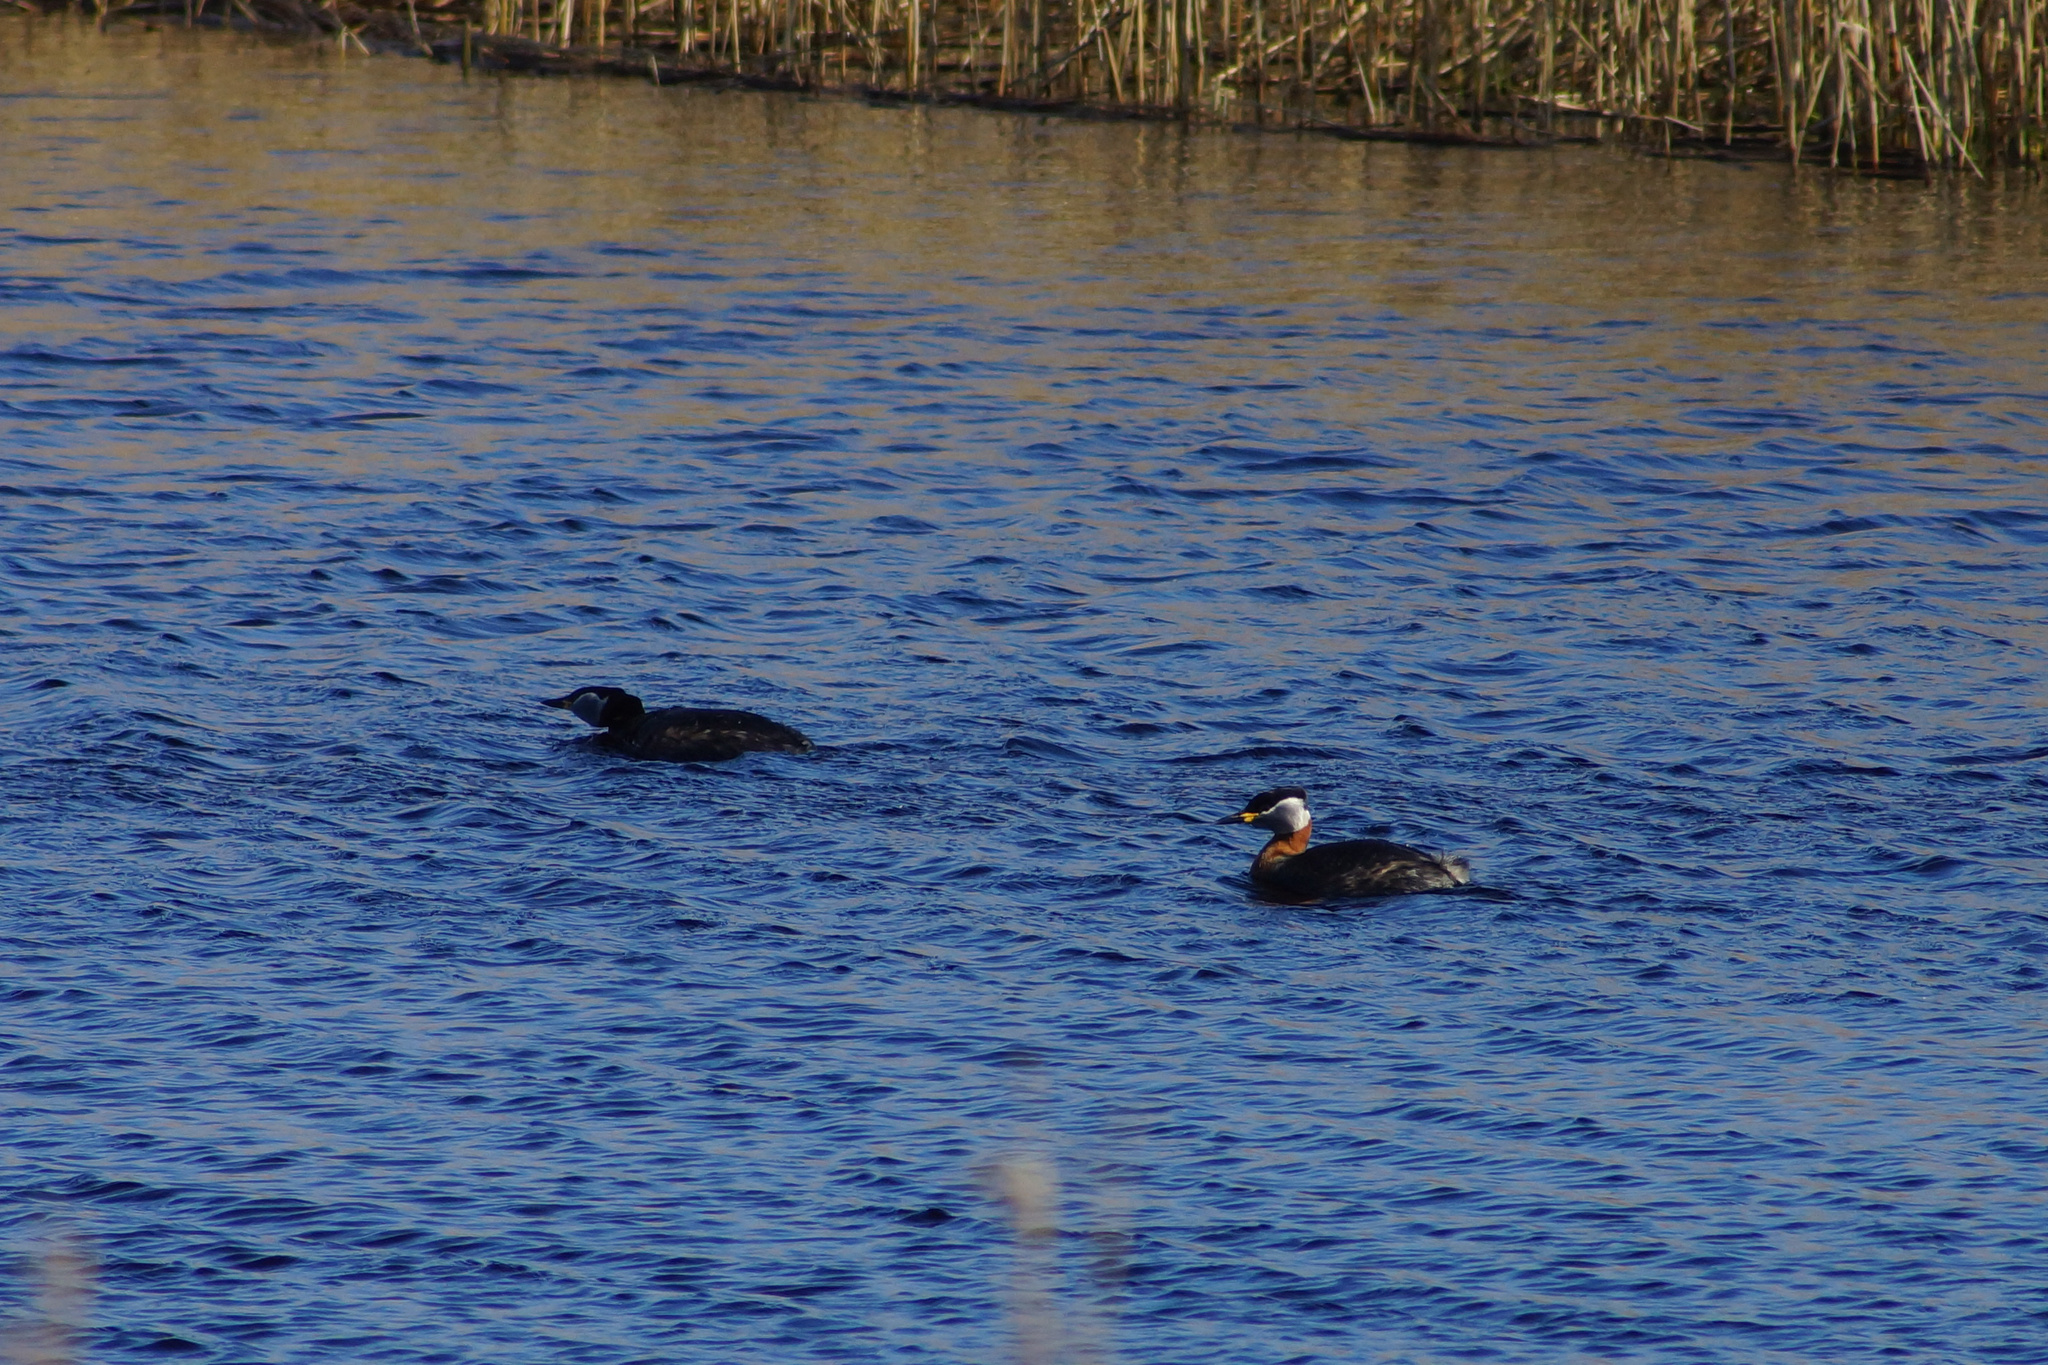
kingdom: Animalia
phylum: Chordata
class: Aves
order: Podicipediformes
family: Podicipedidae
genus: Podiceps
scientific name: Podiceps grisegena
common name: Red-necked grebe
